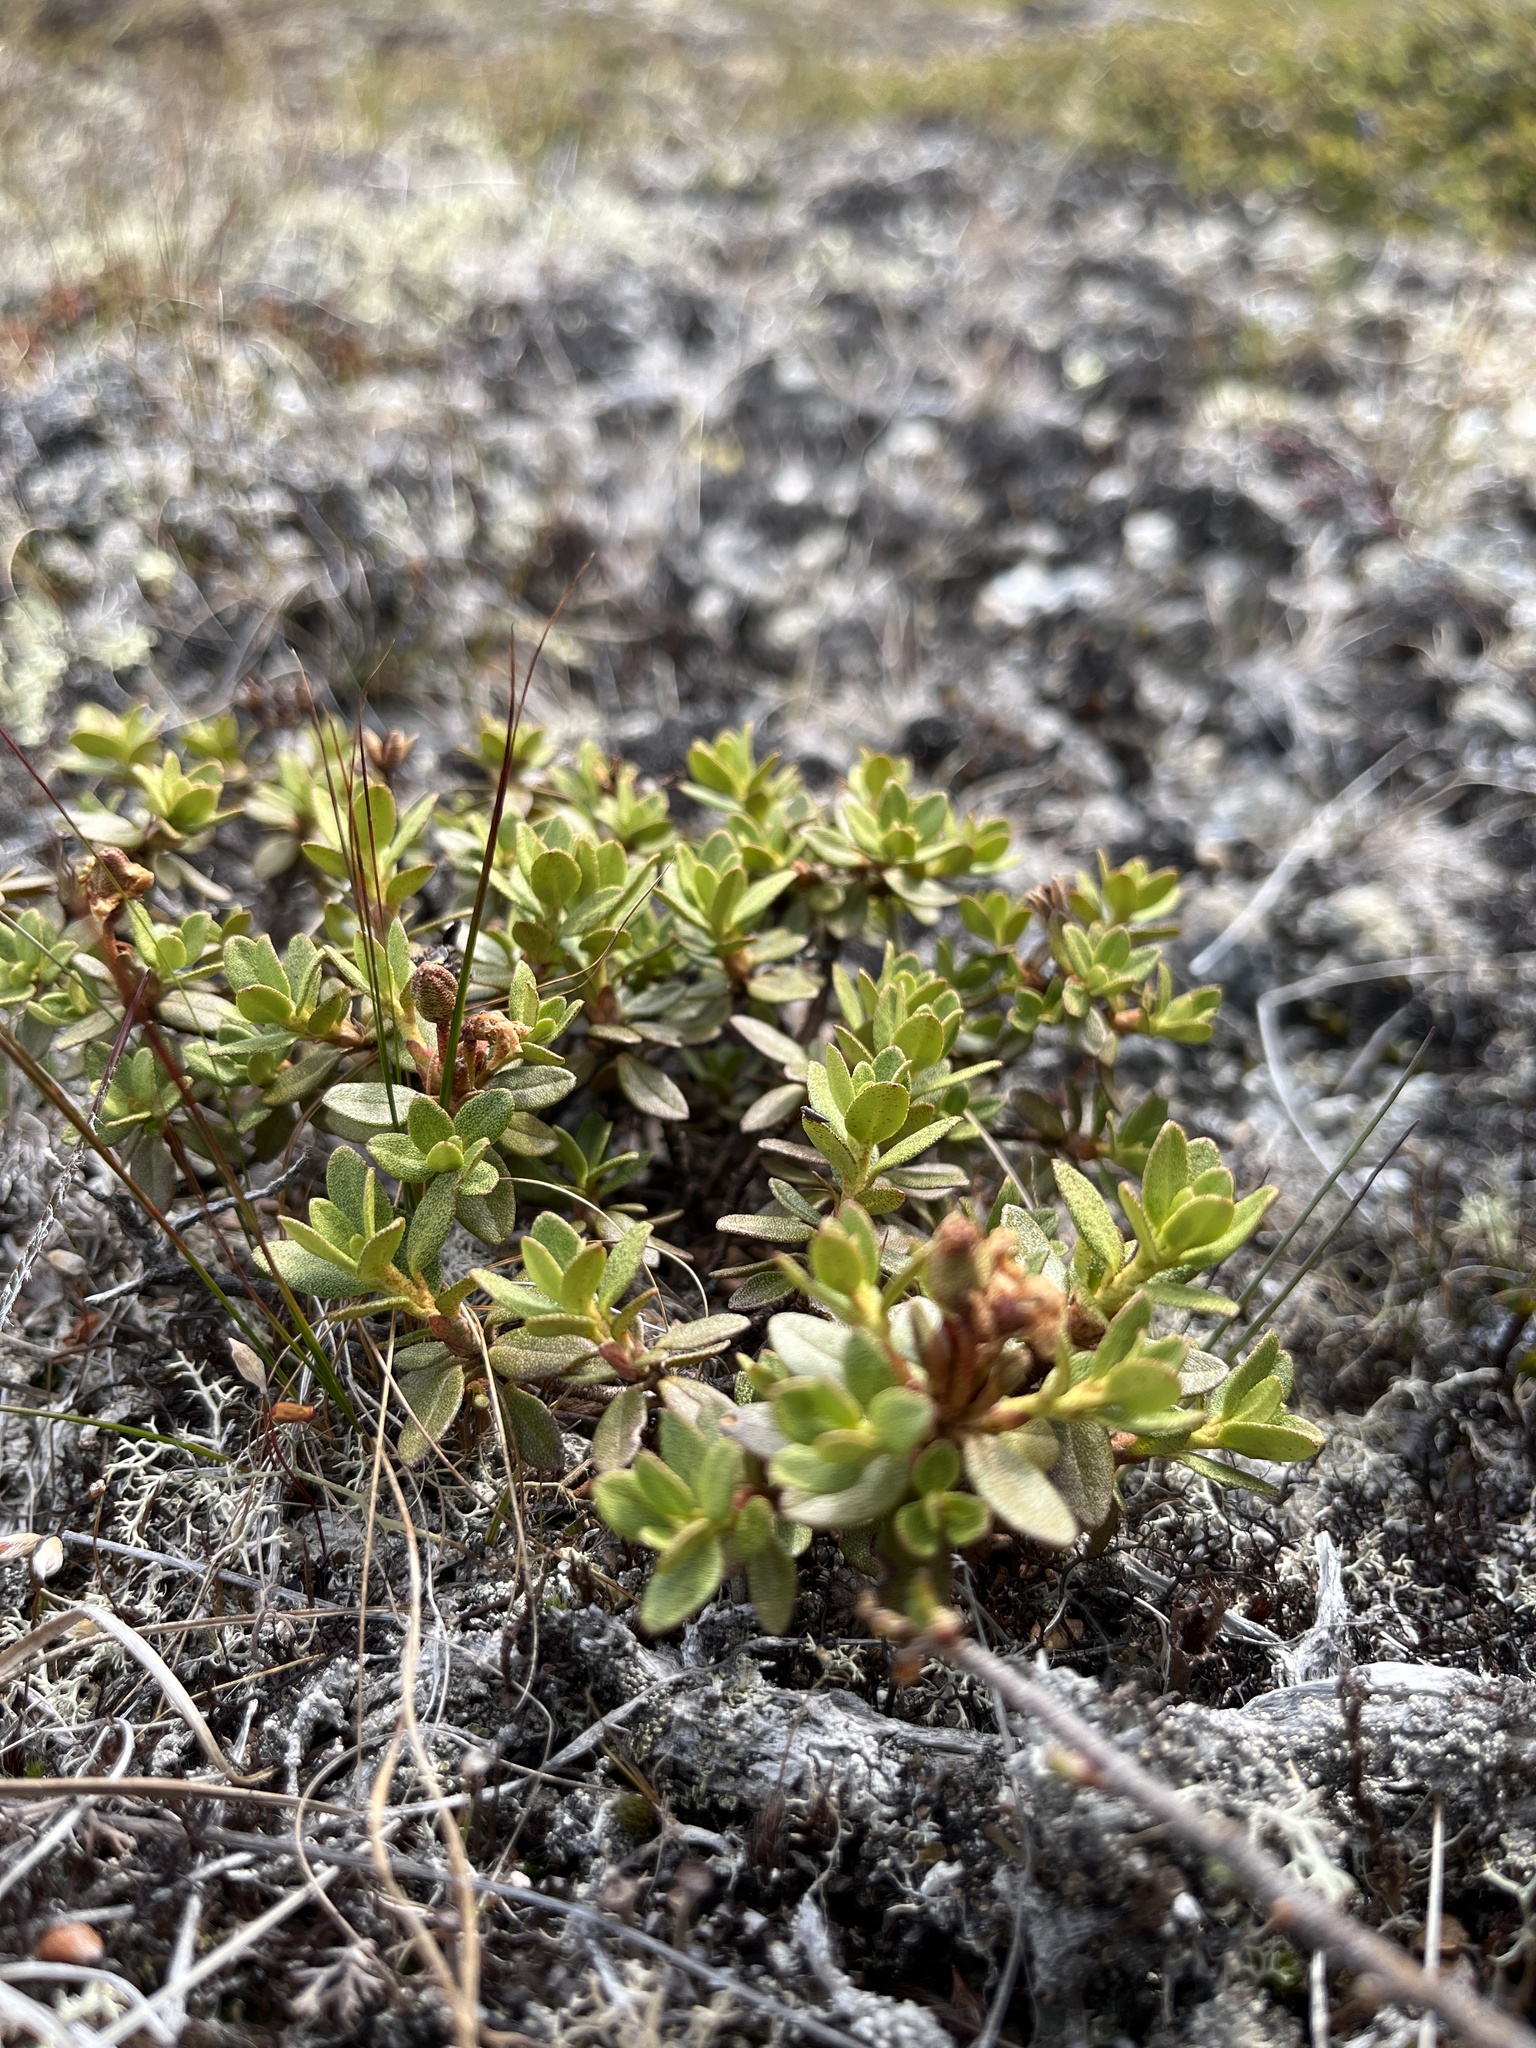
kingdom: Plantae
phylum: Tracheophyta
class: Magnoliopsida
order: Ericales
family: Ericaceae
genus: Rhododendron
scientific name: Rhododendron lapponicum
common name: Lapland rhododendron
